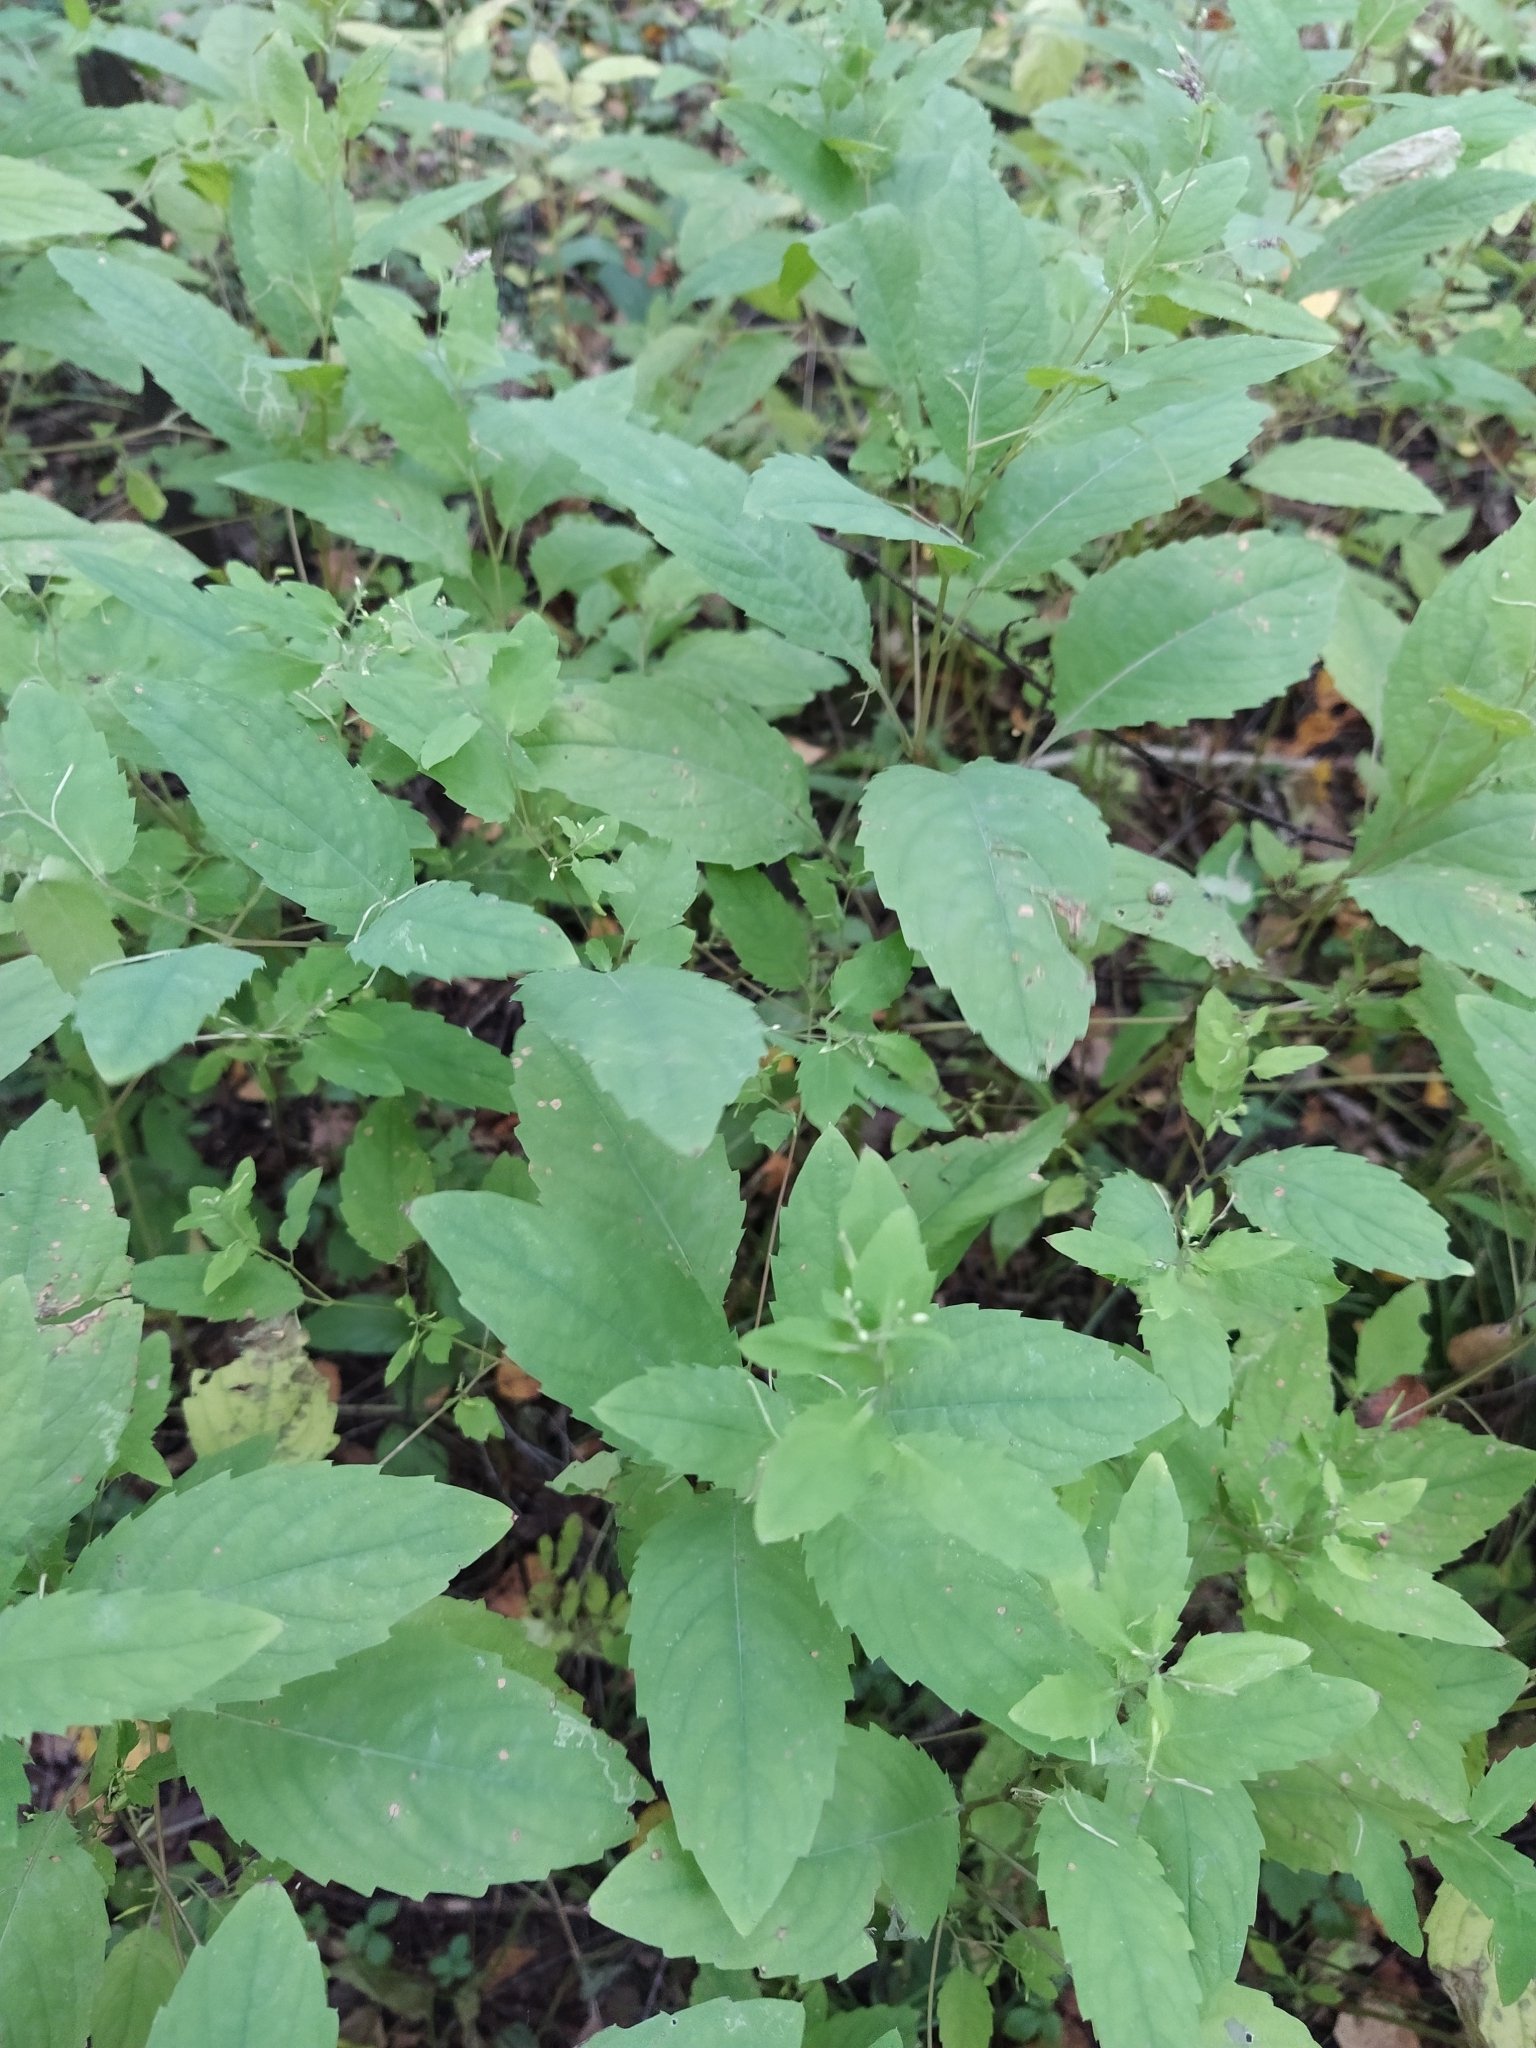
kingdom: Plantae
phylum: Tracheophyta
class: Magnoliopsida
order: Ericales
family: Balsaminaceae
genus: Impatiens
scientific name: Impatiens noli-tangere
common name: Touch-me-not balsam
